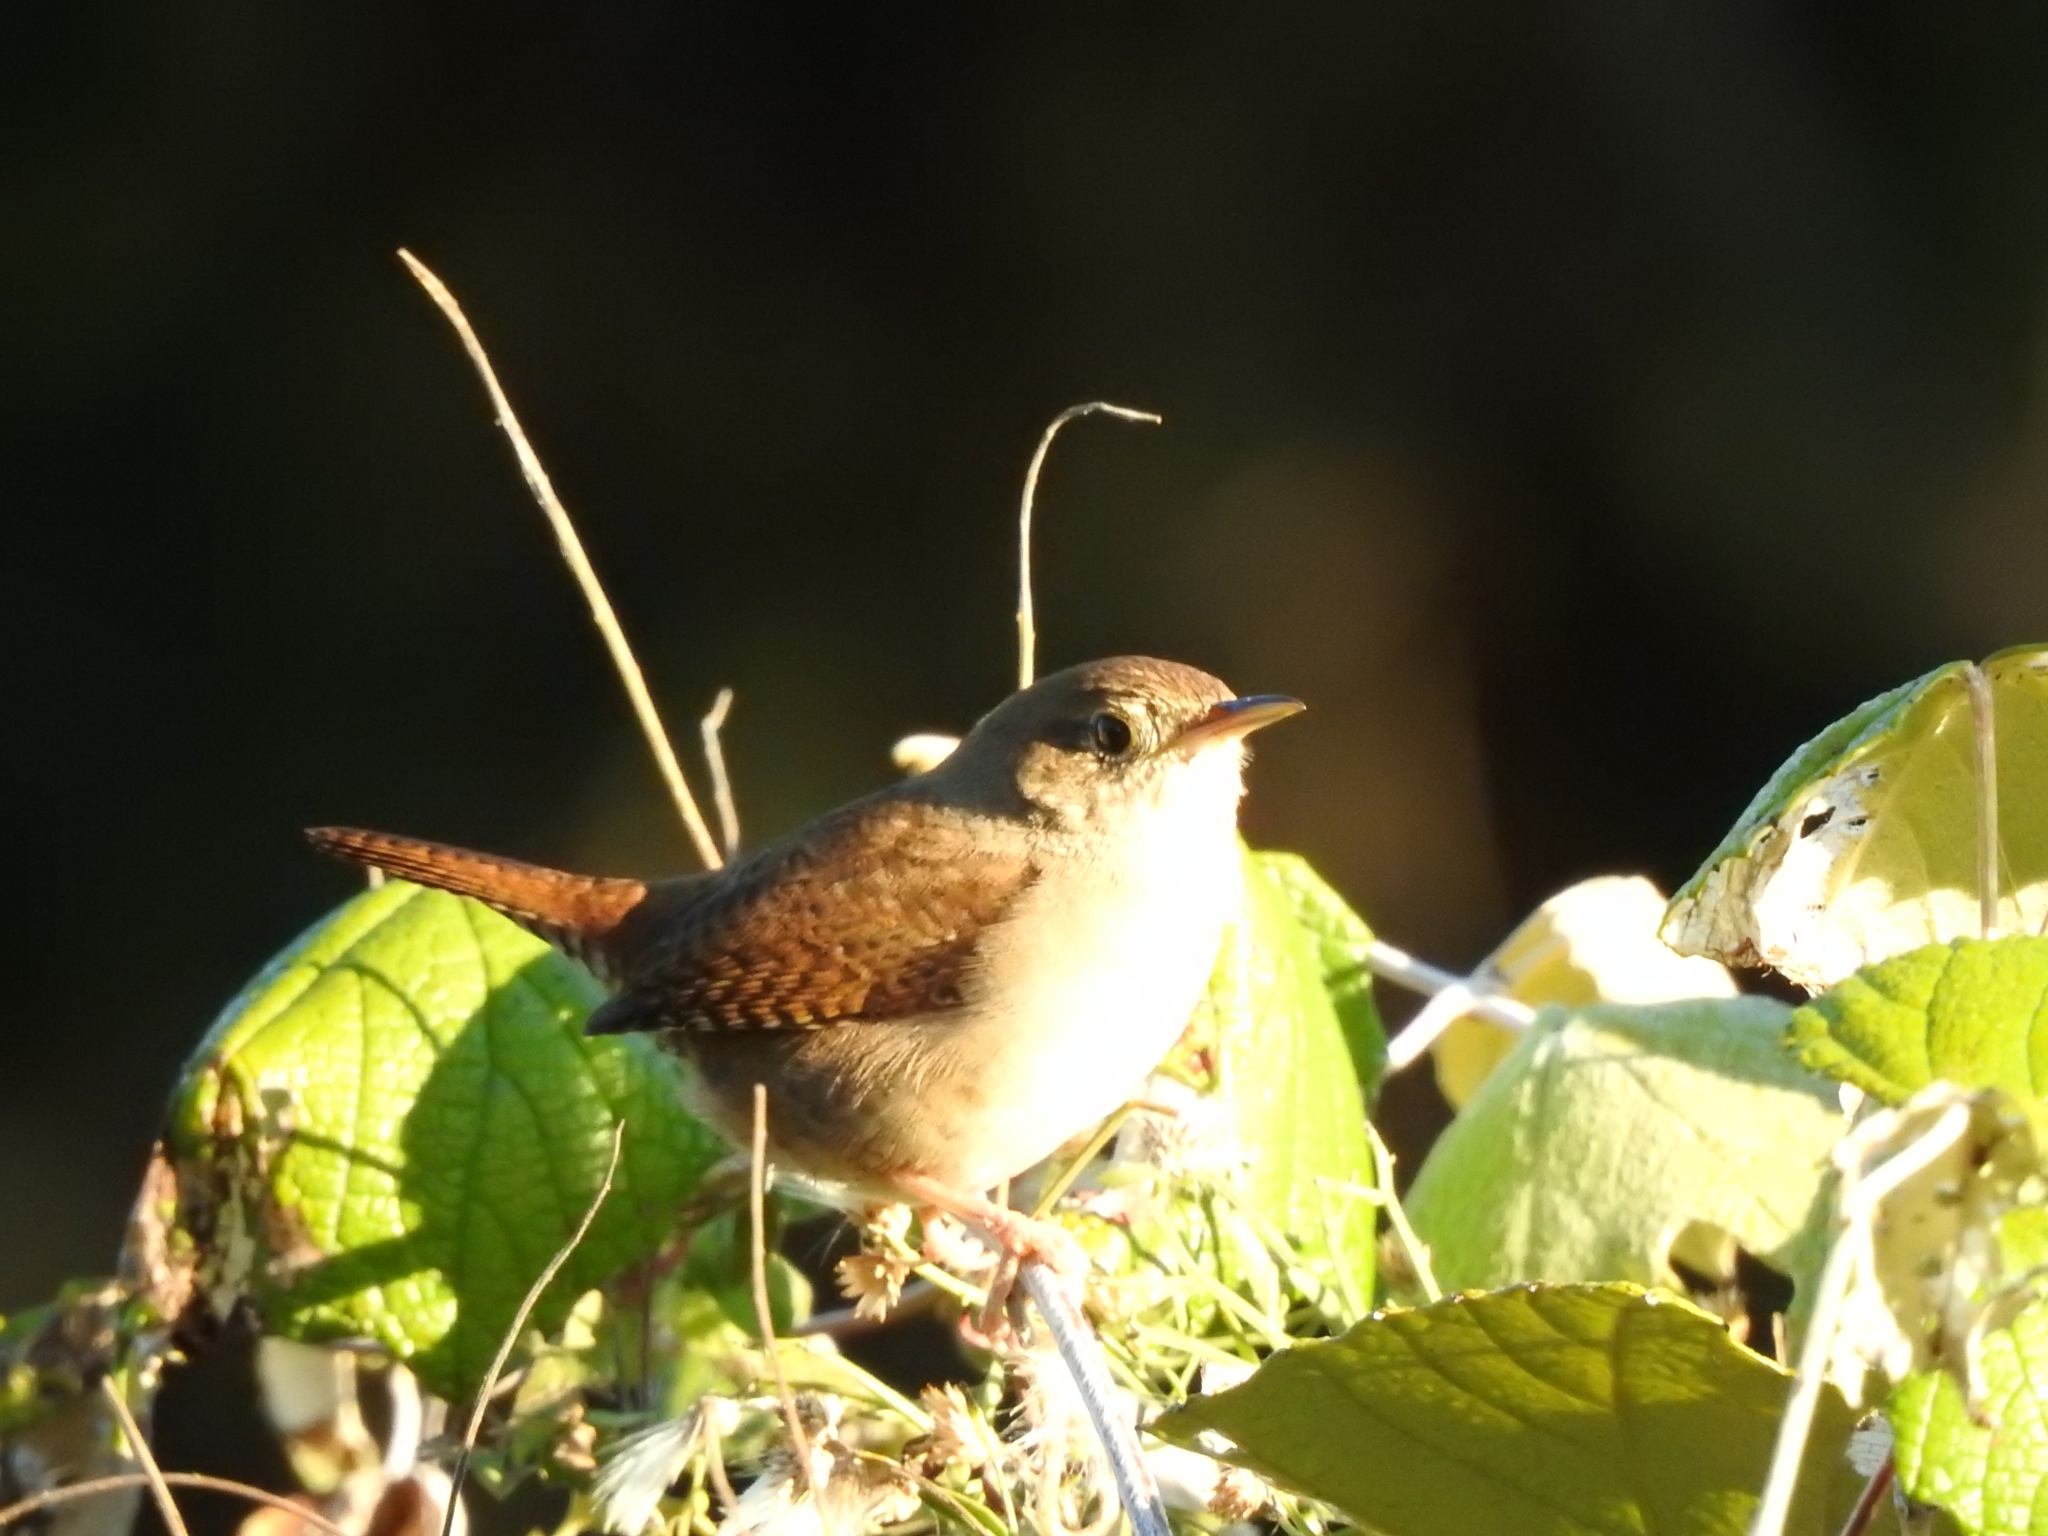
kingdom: Animalia
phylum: Chordata
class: Aves
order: Passeriformes
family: Troglodytidae
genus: Troglodytes
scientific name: Troglodytes aedon
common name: House wren
